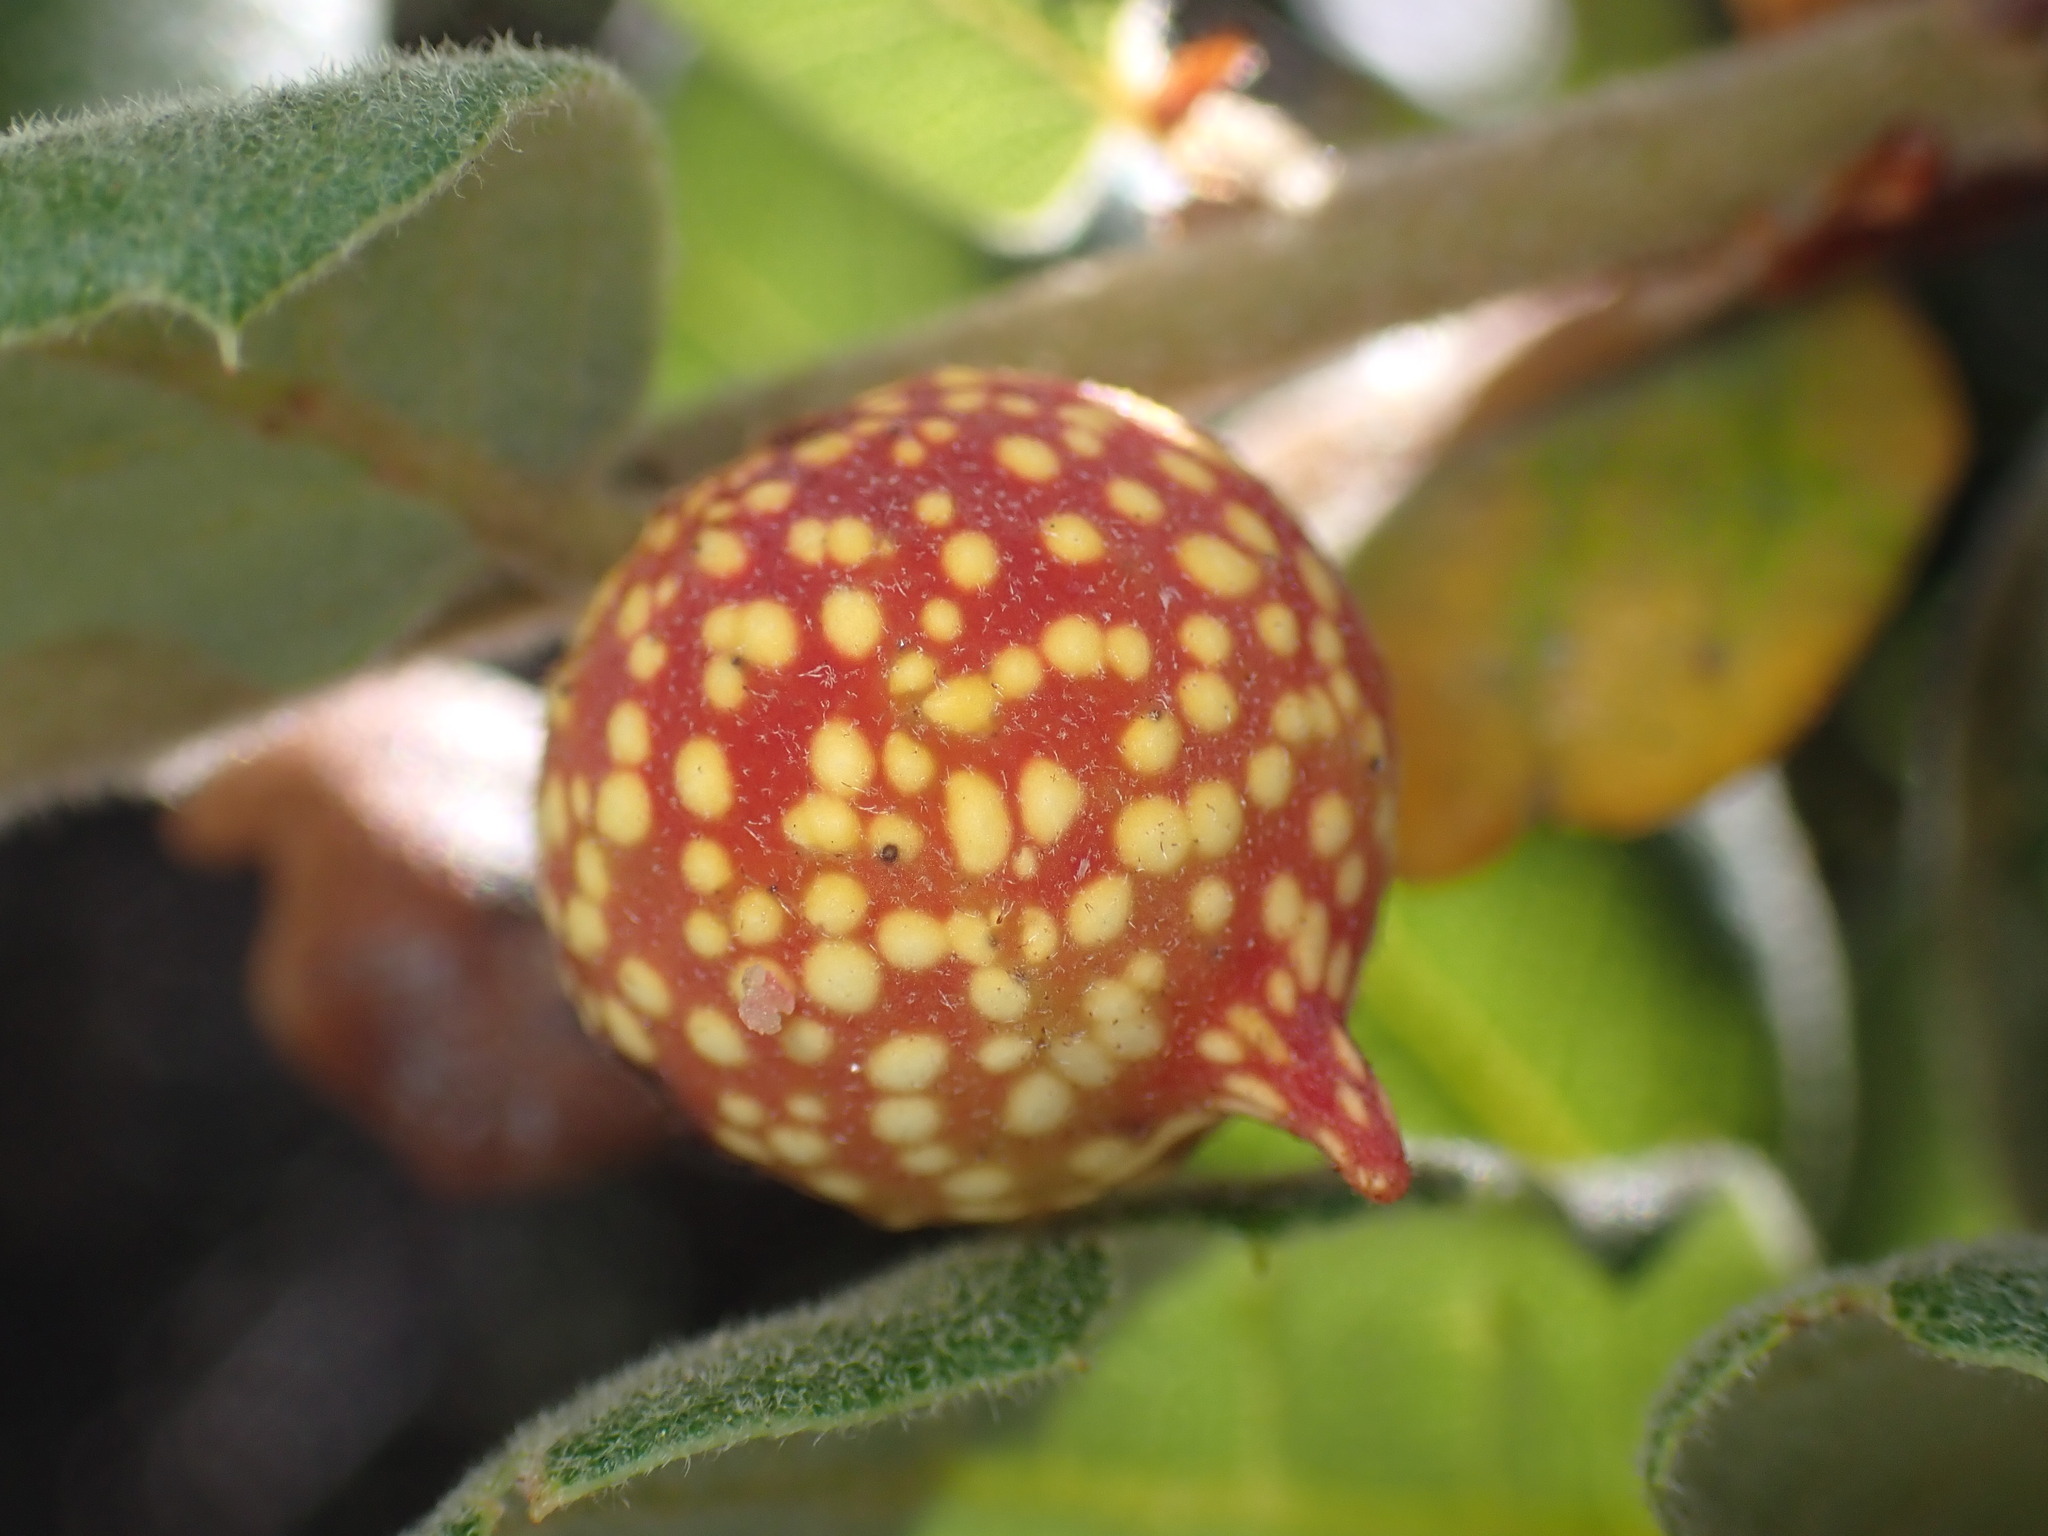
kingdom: Animalia
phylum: Arthropoda
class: Insecta
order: Hymenoptera
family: Cynipidae
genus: Burnettweldia
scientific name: Burnettweldia
